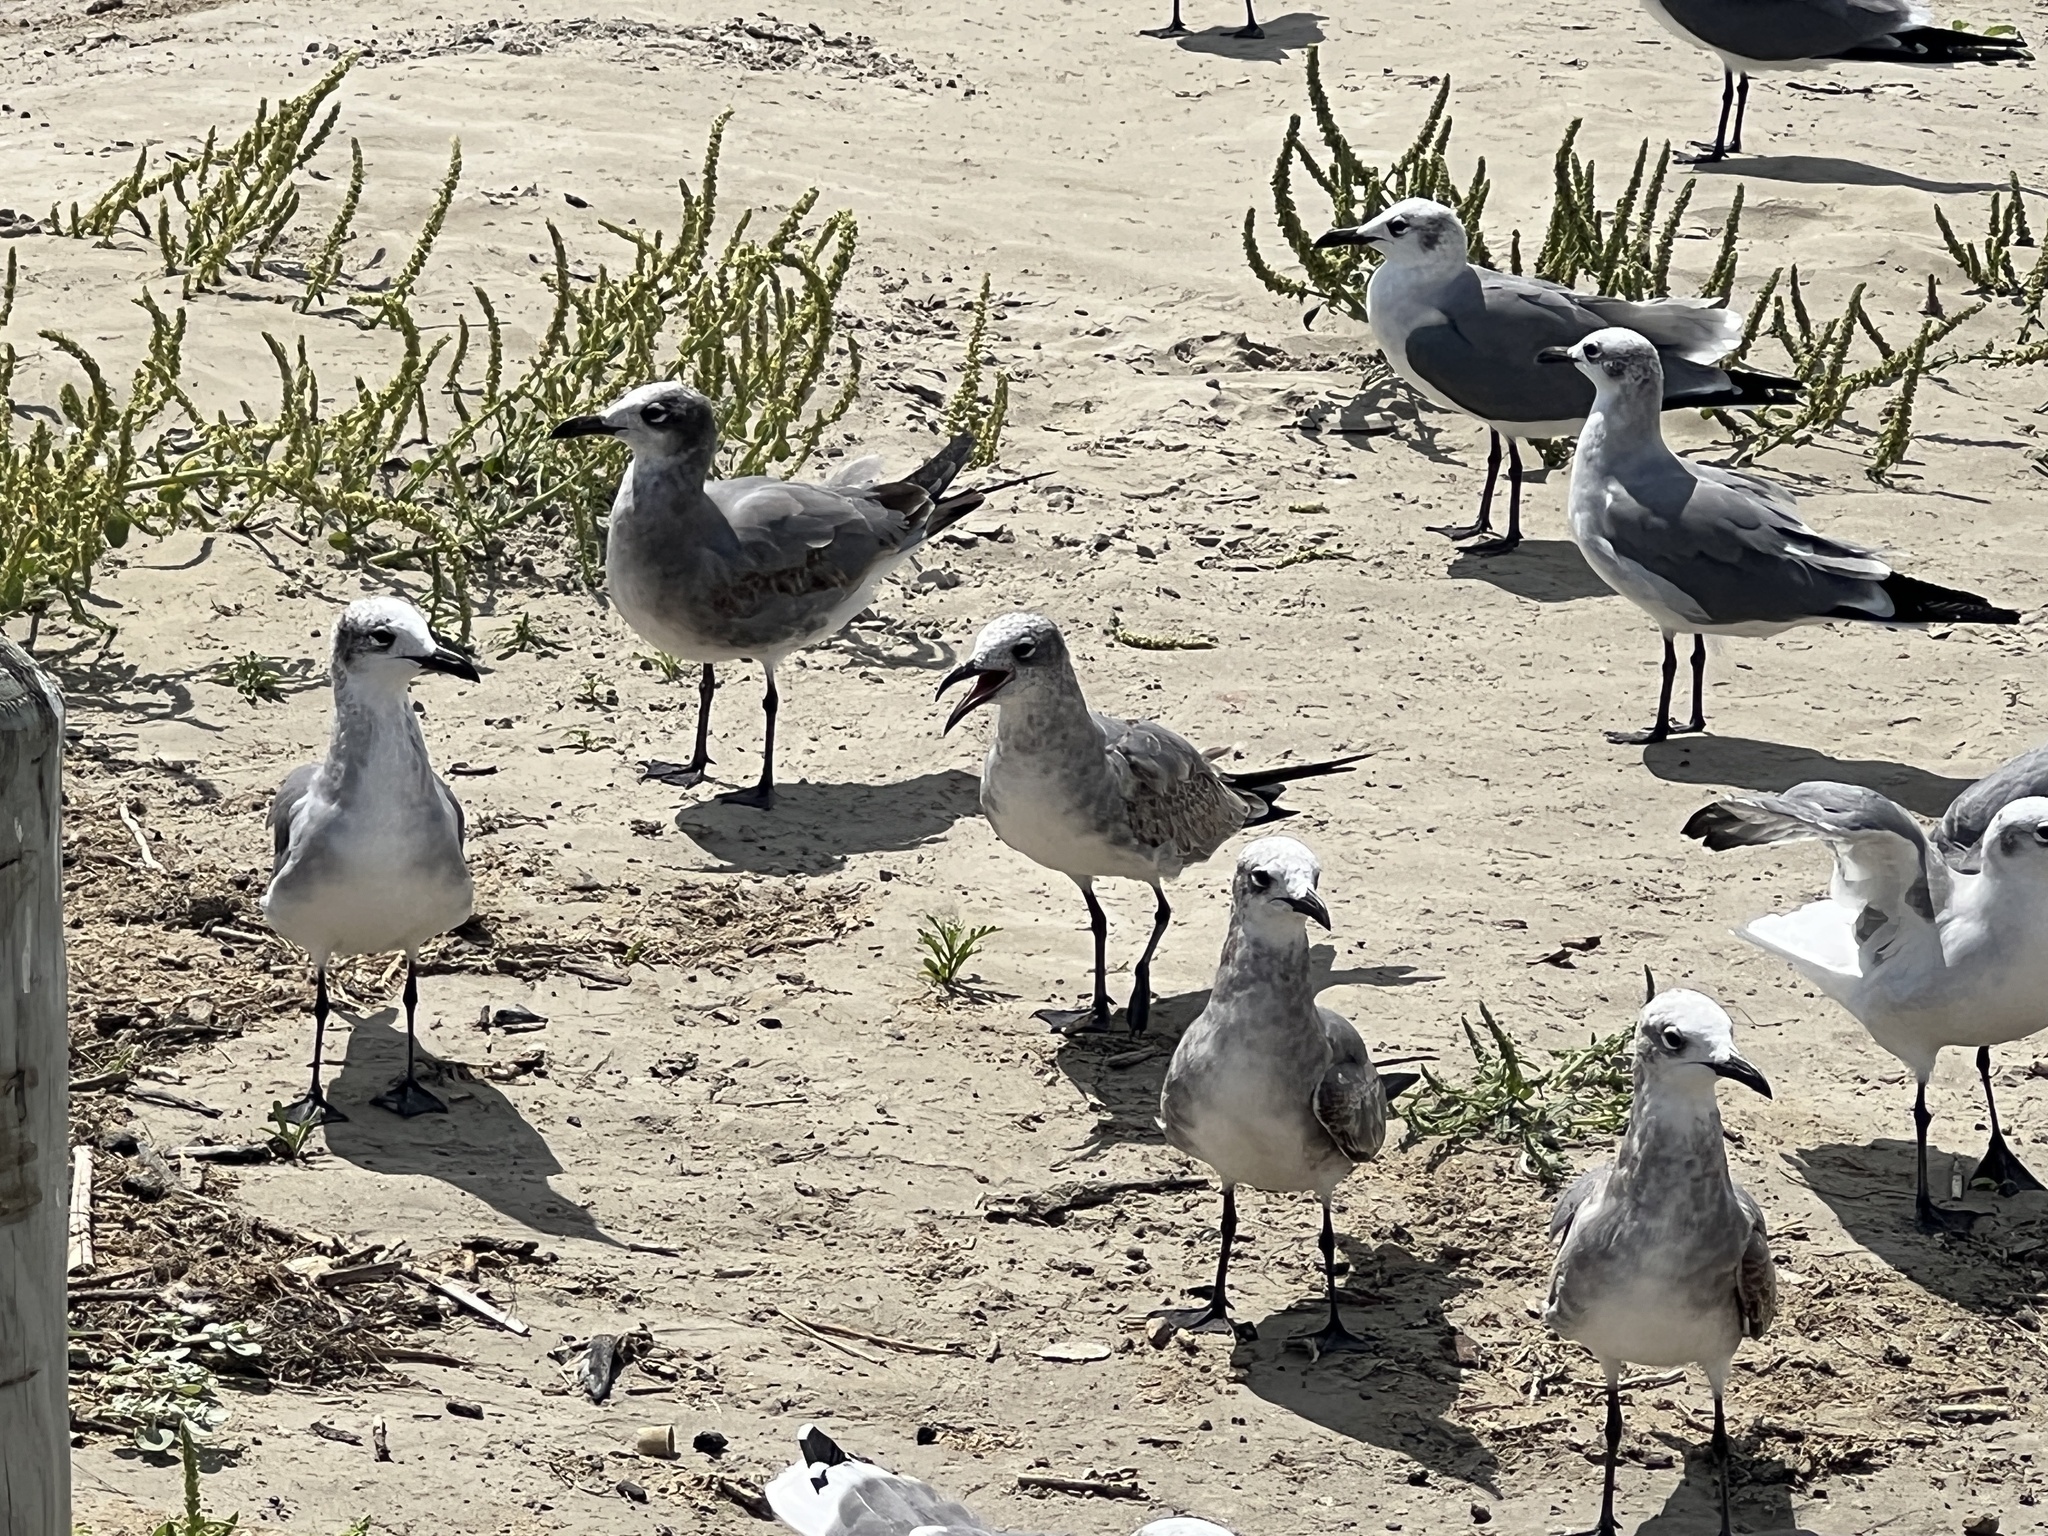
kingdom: Animalia
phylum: Chordata
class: Aves
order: Charadriiformes
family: Laridae
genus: Leucophaeus
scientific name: Leucophaeus atricilla
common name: Laughing gull
